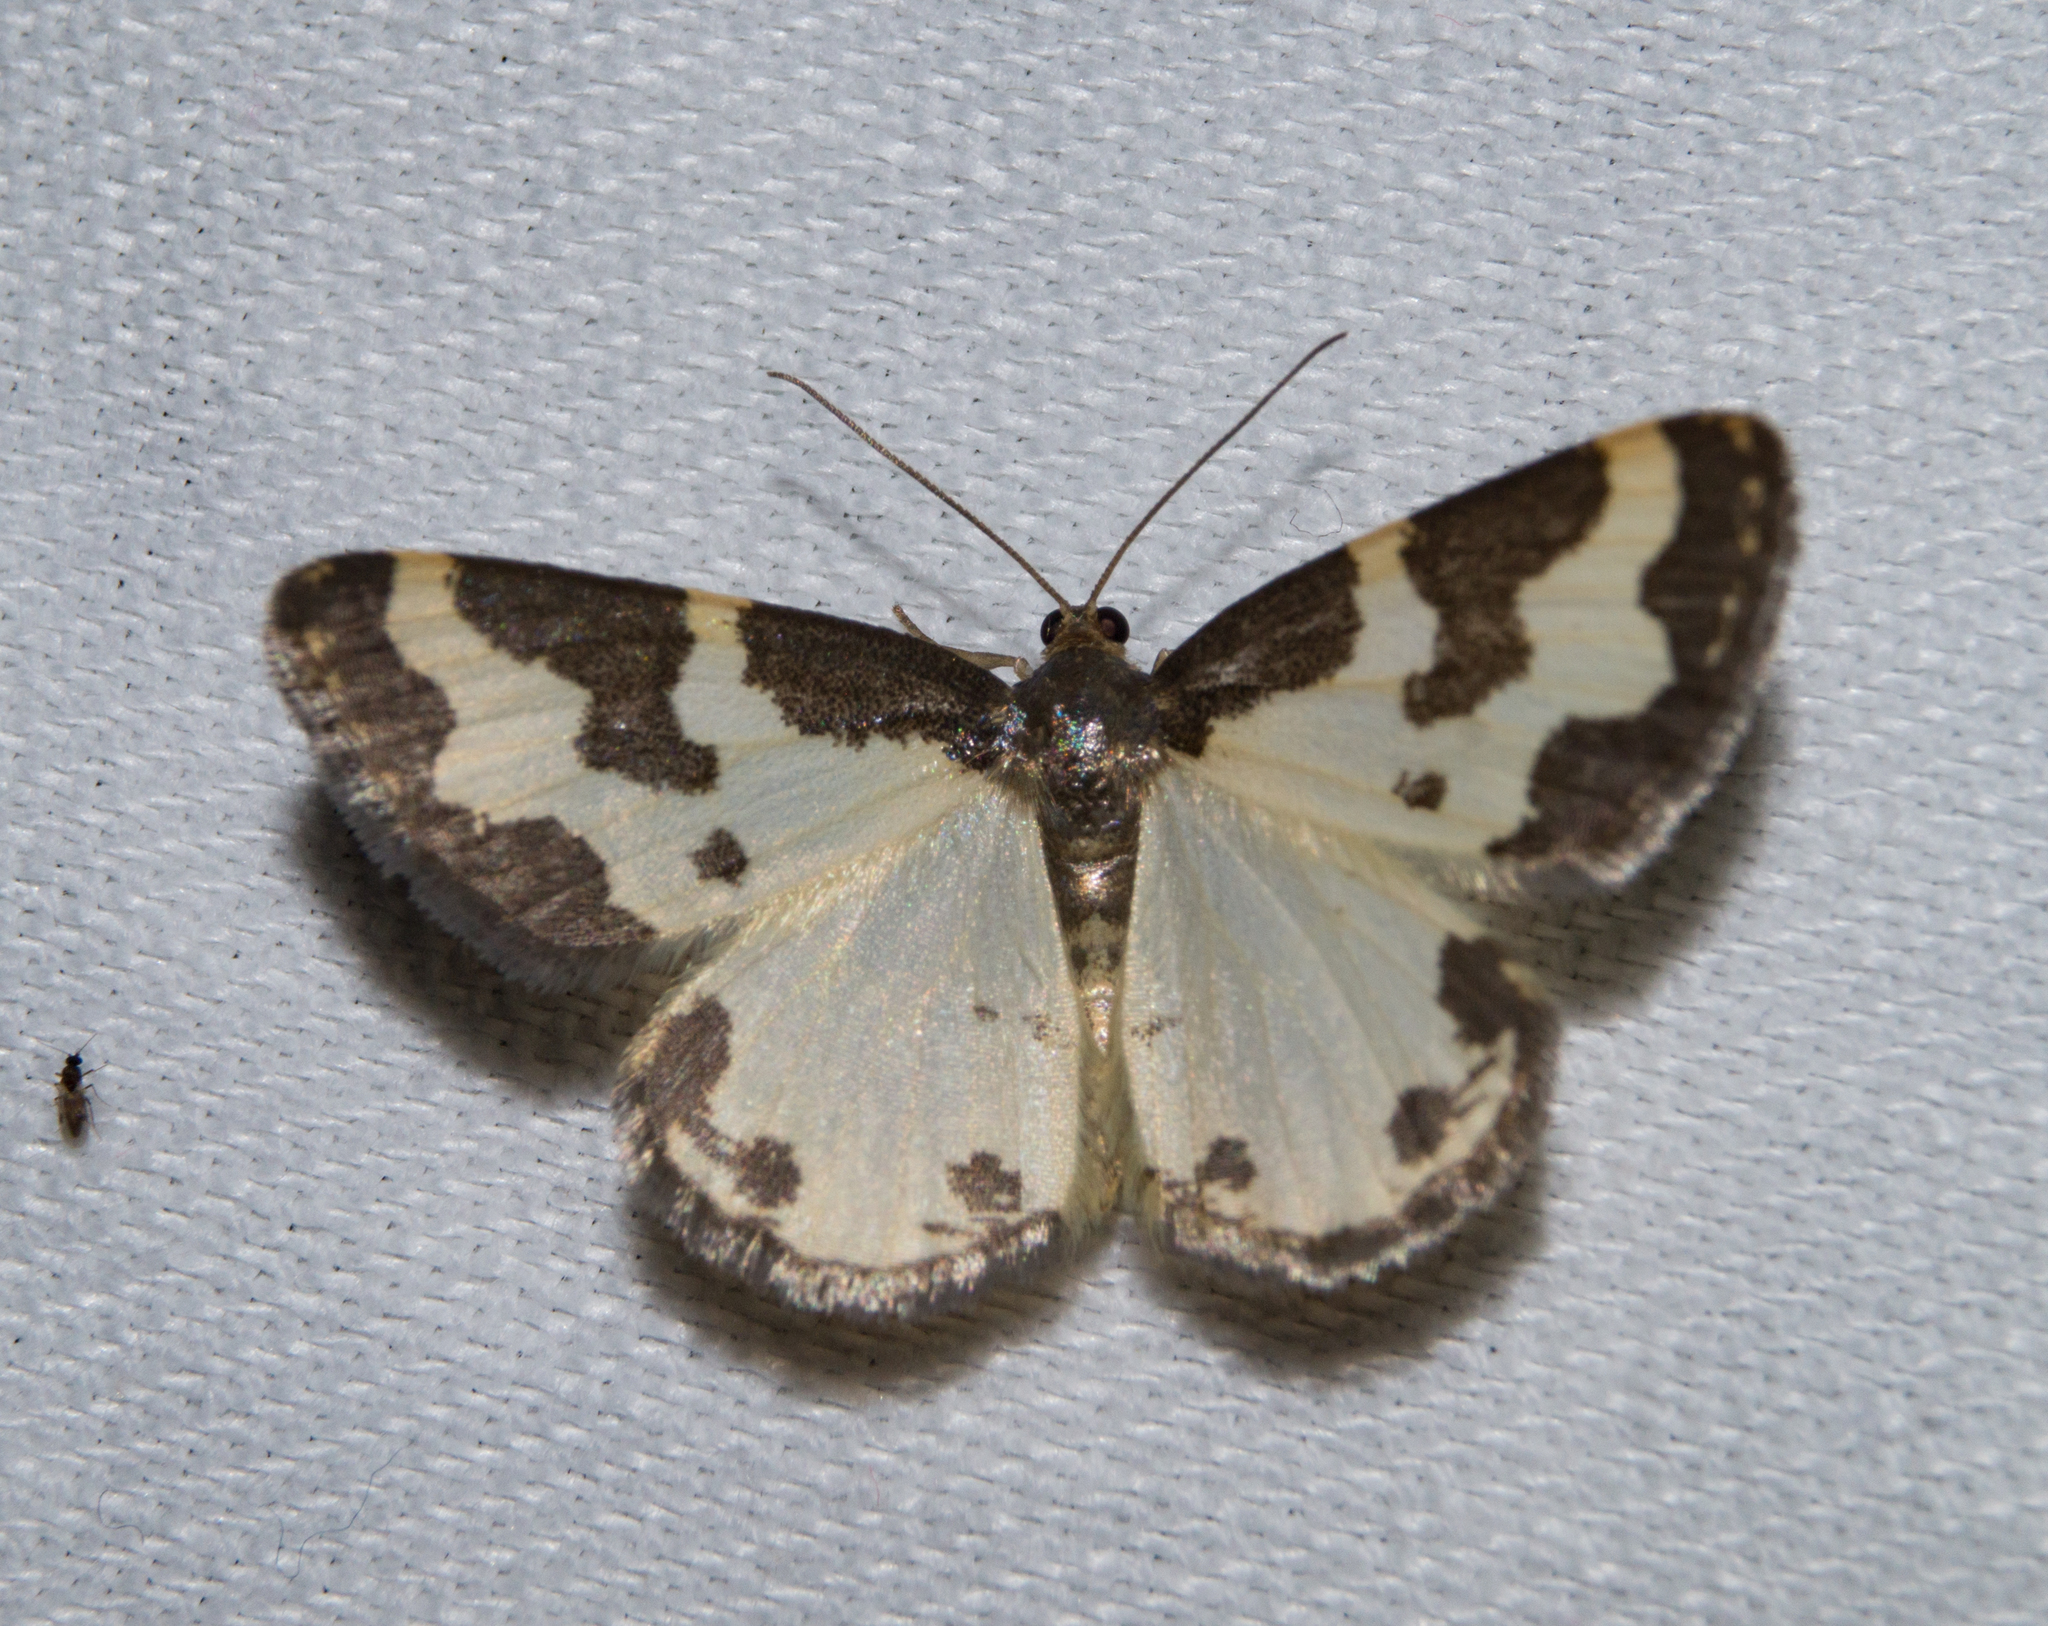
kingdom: Animalia
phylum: Arthropoda
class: Insecta
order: Lepidoptera
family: Geometridae
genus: Lomaspilis
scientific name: Lomaspilis marginata
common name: Clouded border
